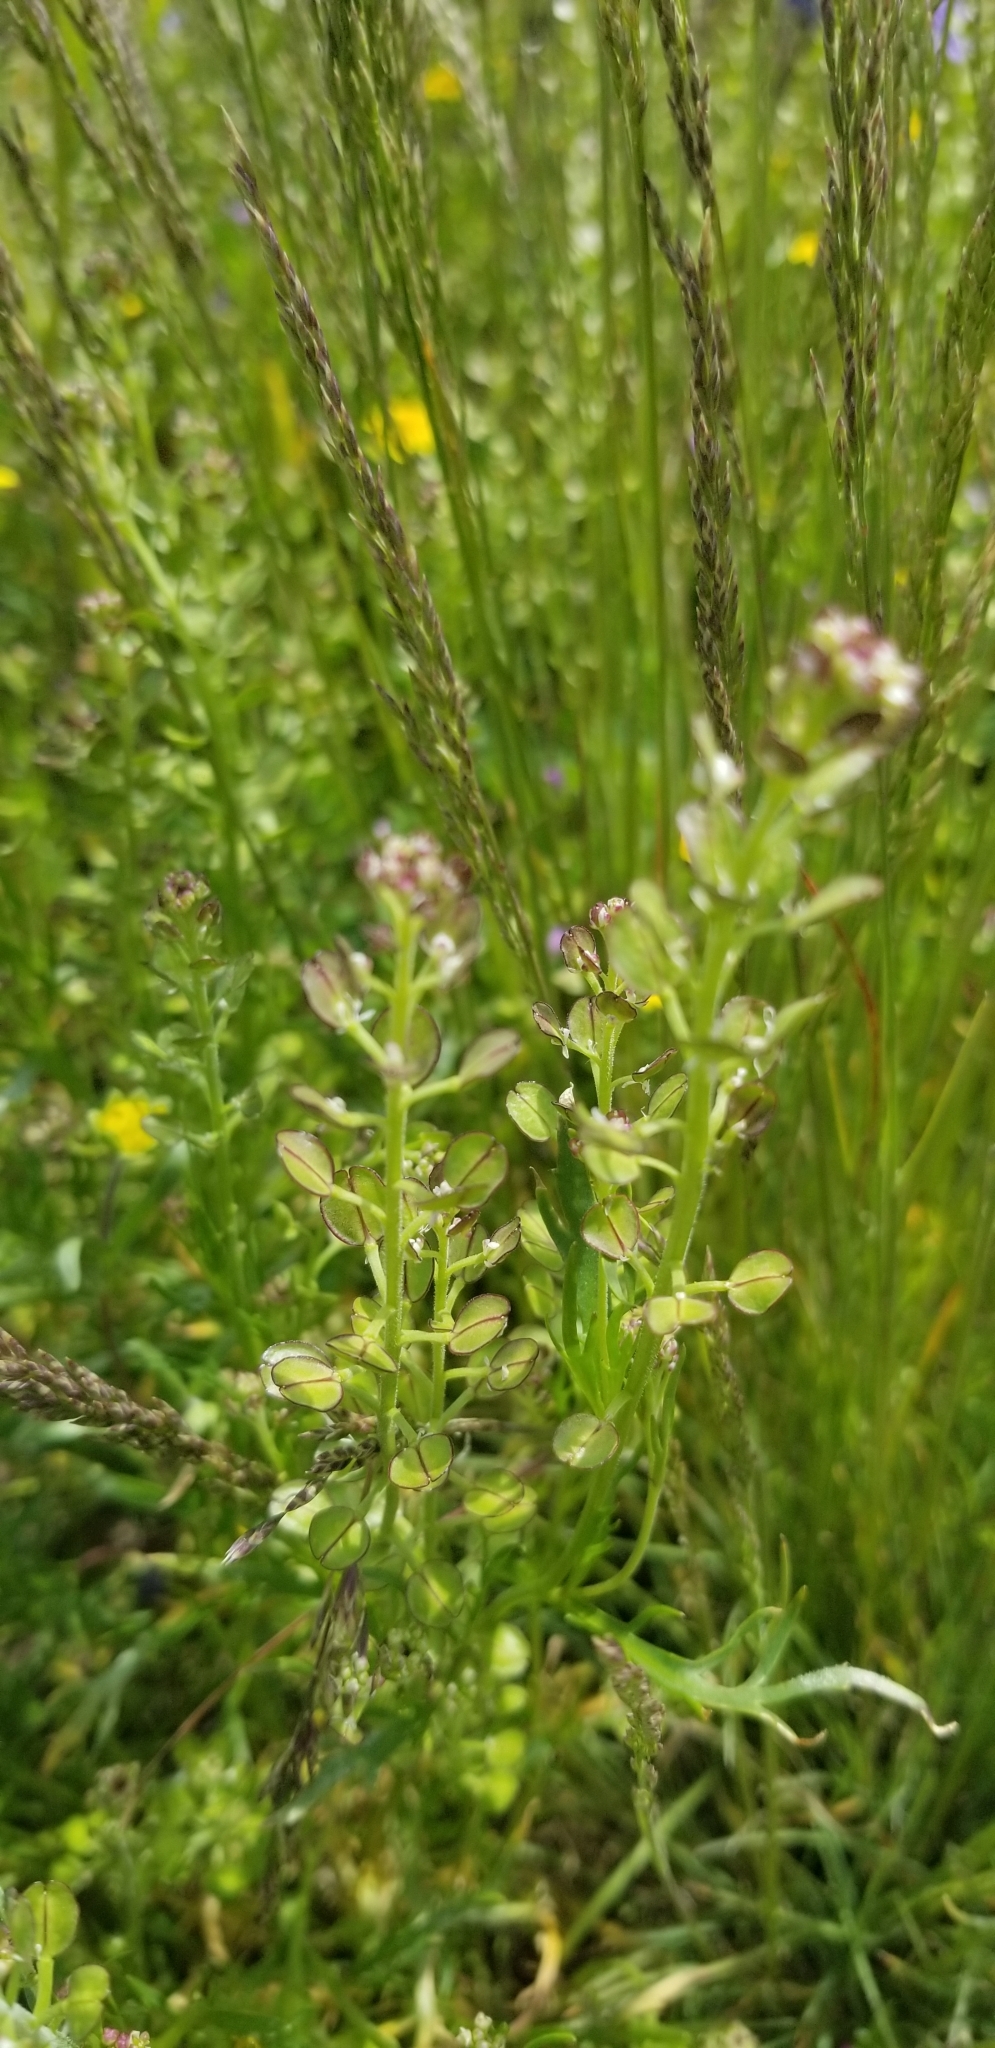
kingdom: Plantae
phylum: Tracheophyta
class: Magnoliopsida
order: Brassicales
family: Brassicaceae
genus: Lepidium
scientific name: Lepidium nitidum
